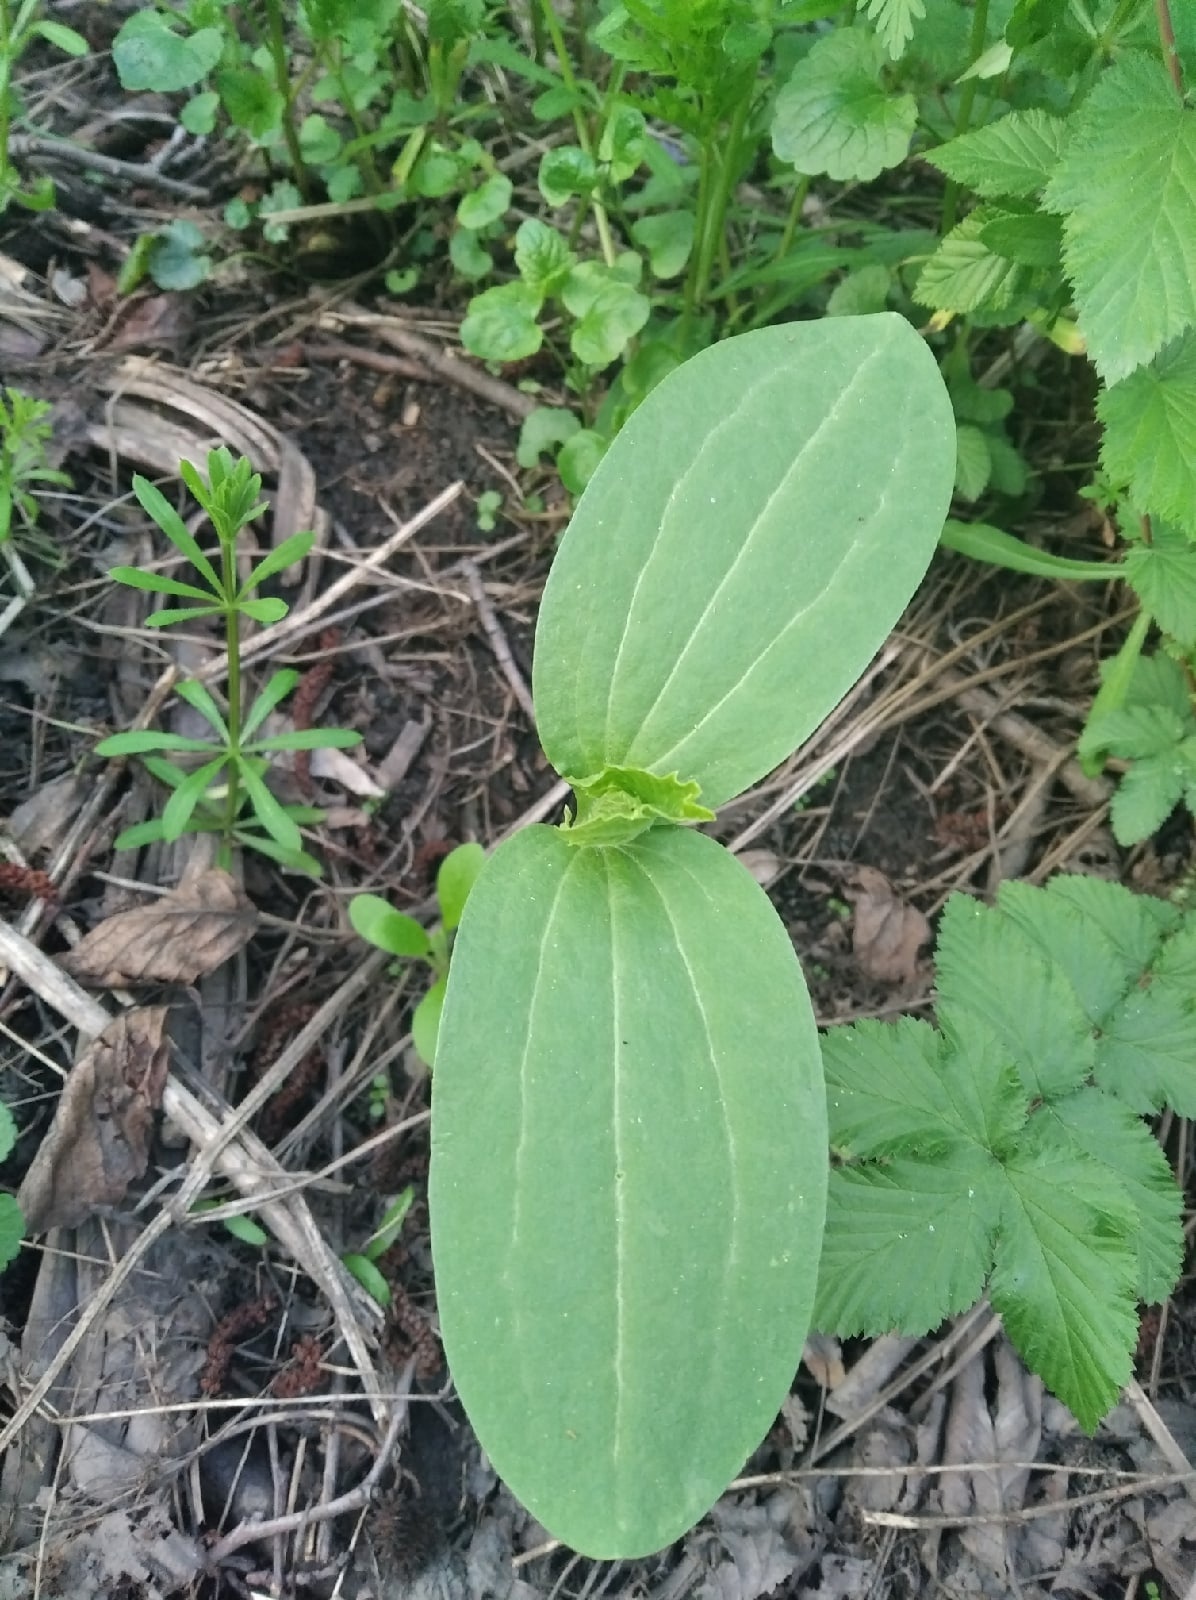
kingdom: Plantae
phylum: Tracheophyta
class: Magnoliopsida
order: Cucurbitales
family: Cucurbitaceae
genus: Echinocystis
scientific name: Echinocystis lobata
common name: Wild cucumber
